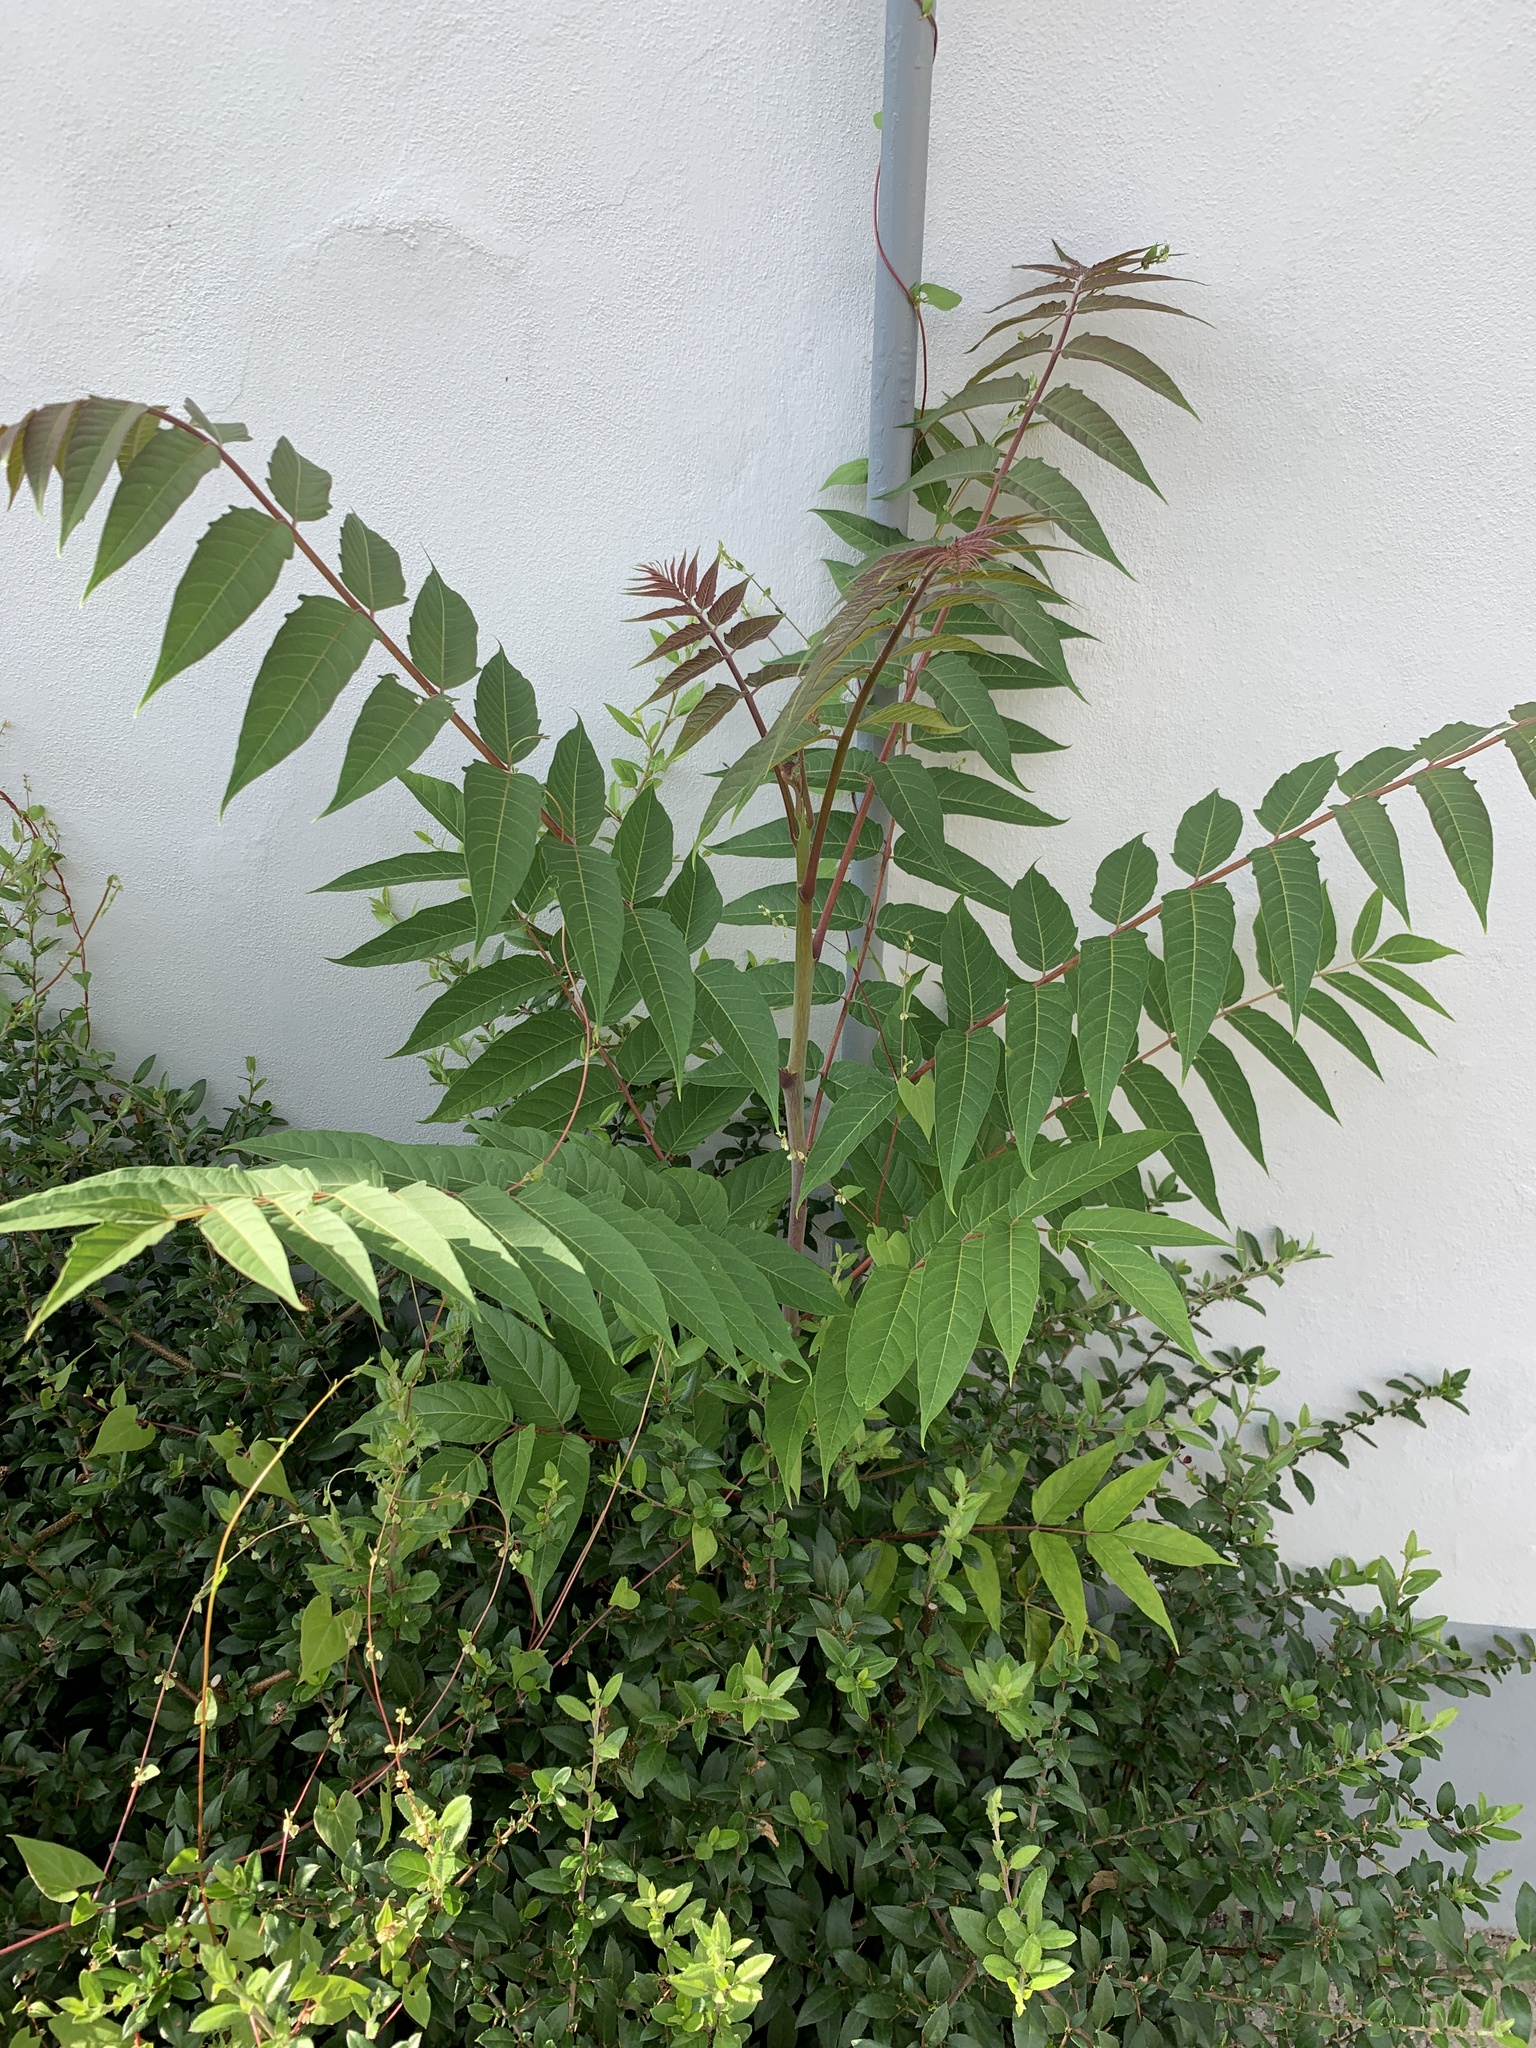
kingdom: Plantae
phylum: Tracheophyta
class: Magnoliopsida
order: Sapindales
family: Simaroubaceae
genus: Ailanthus
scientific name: Ailanthus altissima
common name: Tree-of-heaven
